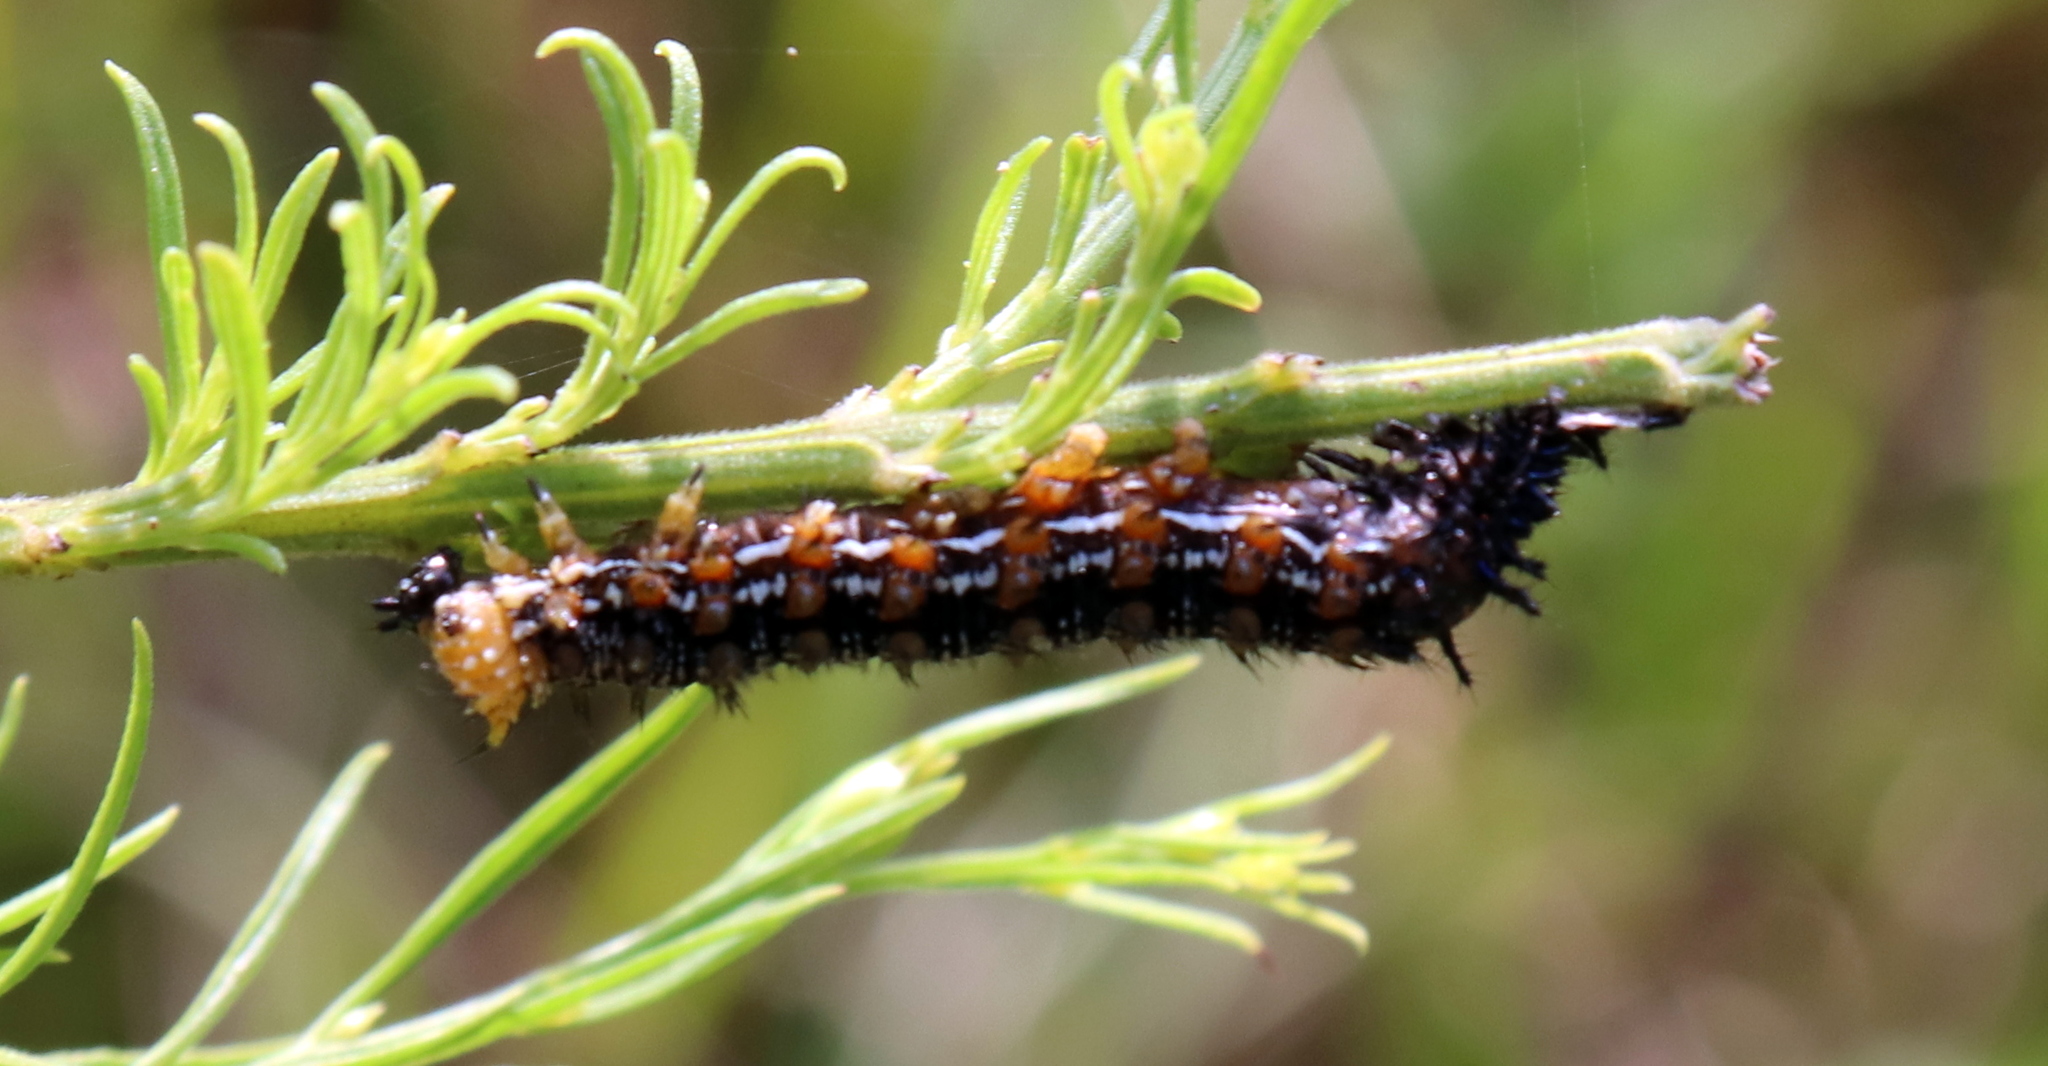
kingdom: Animalia
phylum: Arthropoda
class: Insecta
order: Lepidoptera
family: Nymphalidae
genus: Junonia
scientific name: Junonia coenia
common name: Common buckeye
